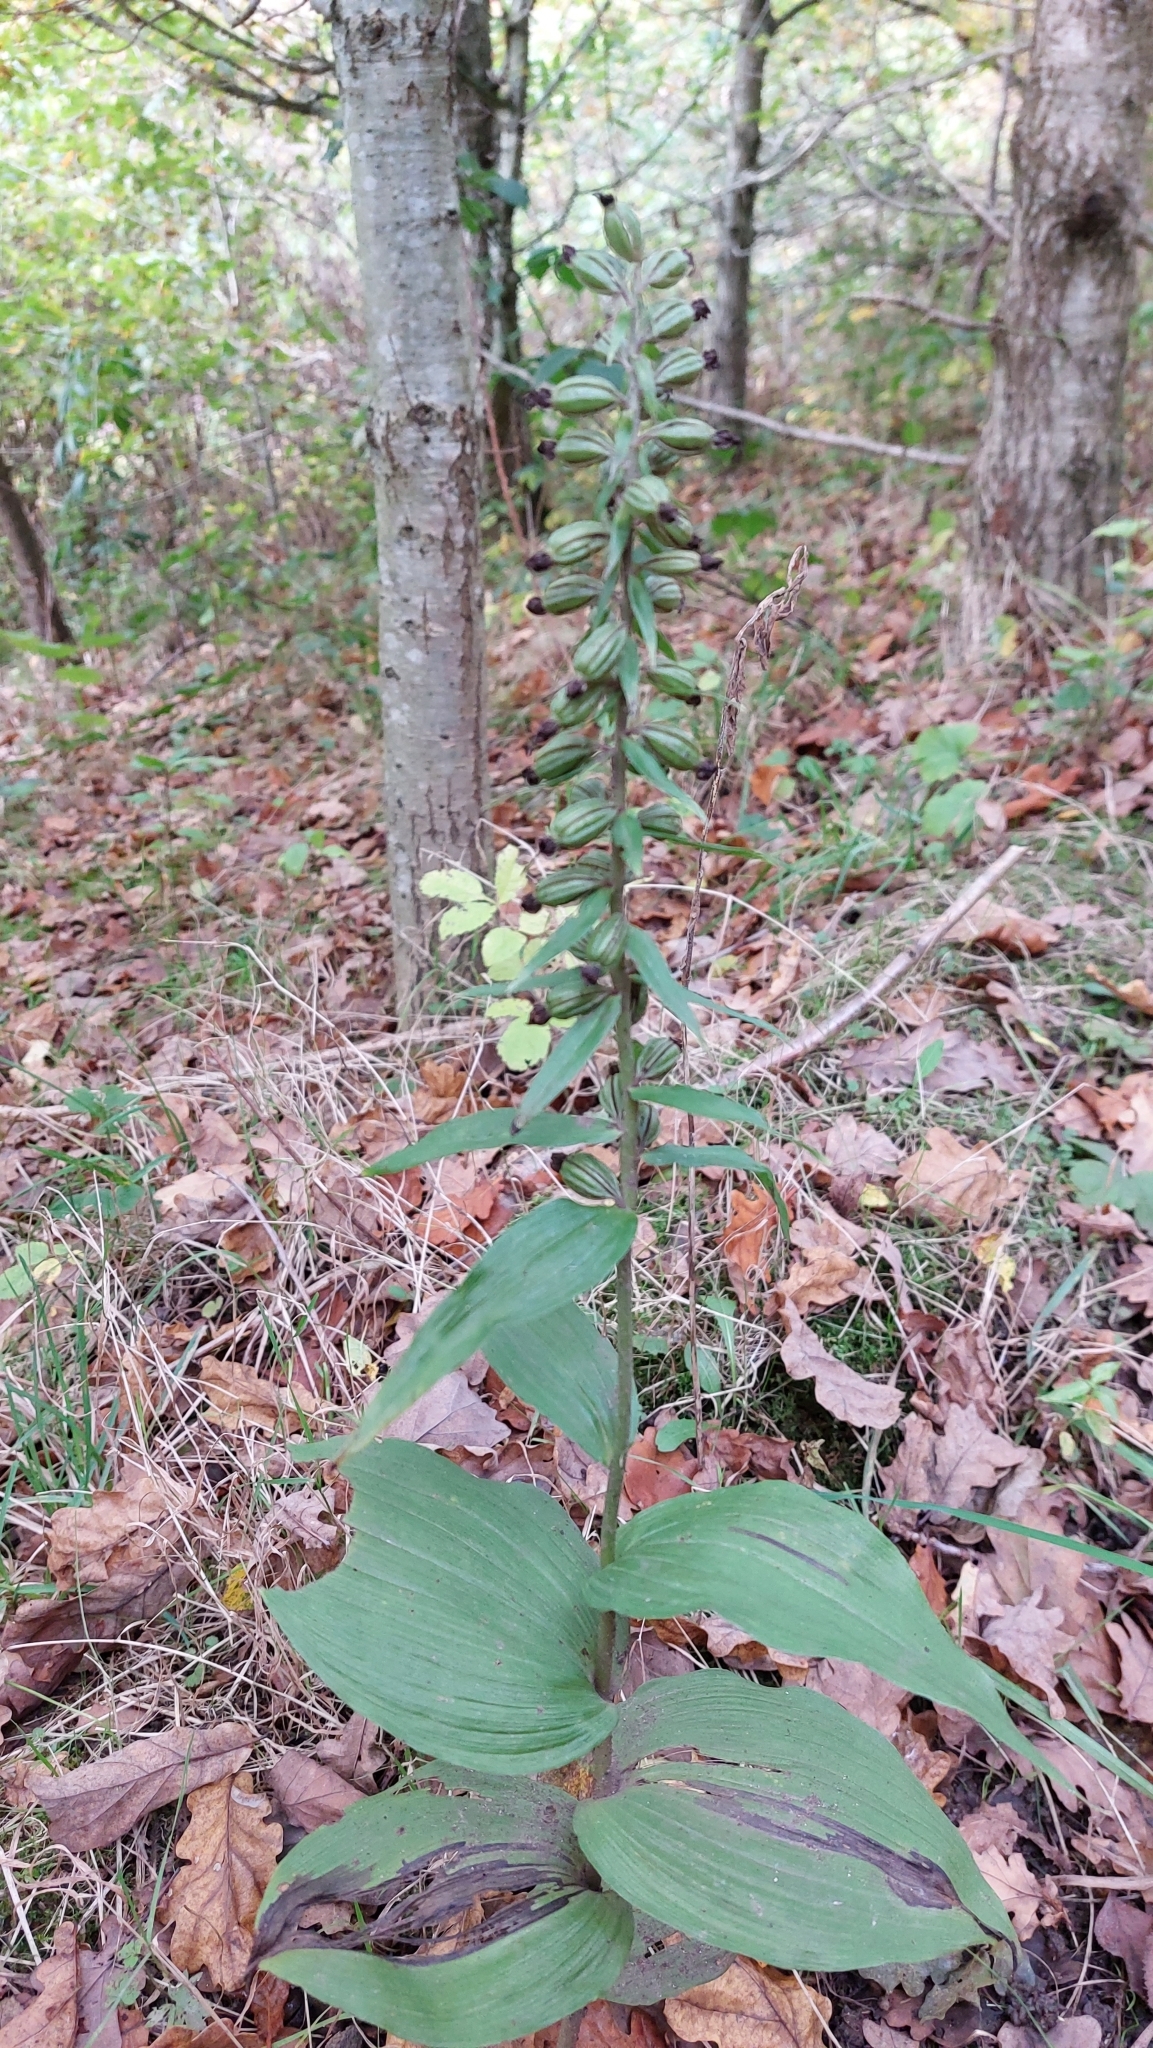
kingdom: Plantae
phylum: Tracheophyta
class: Liliopsida
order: Asparagales
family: Orchidaceae
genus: Epipactis
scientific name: Epipactis helleborine
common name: Broad-leaved helleborine
